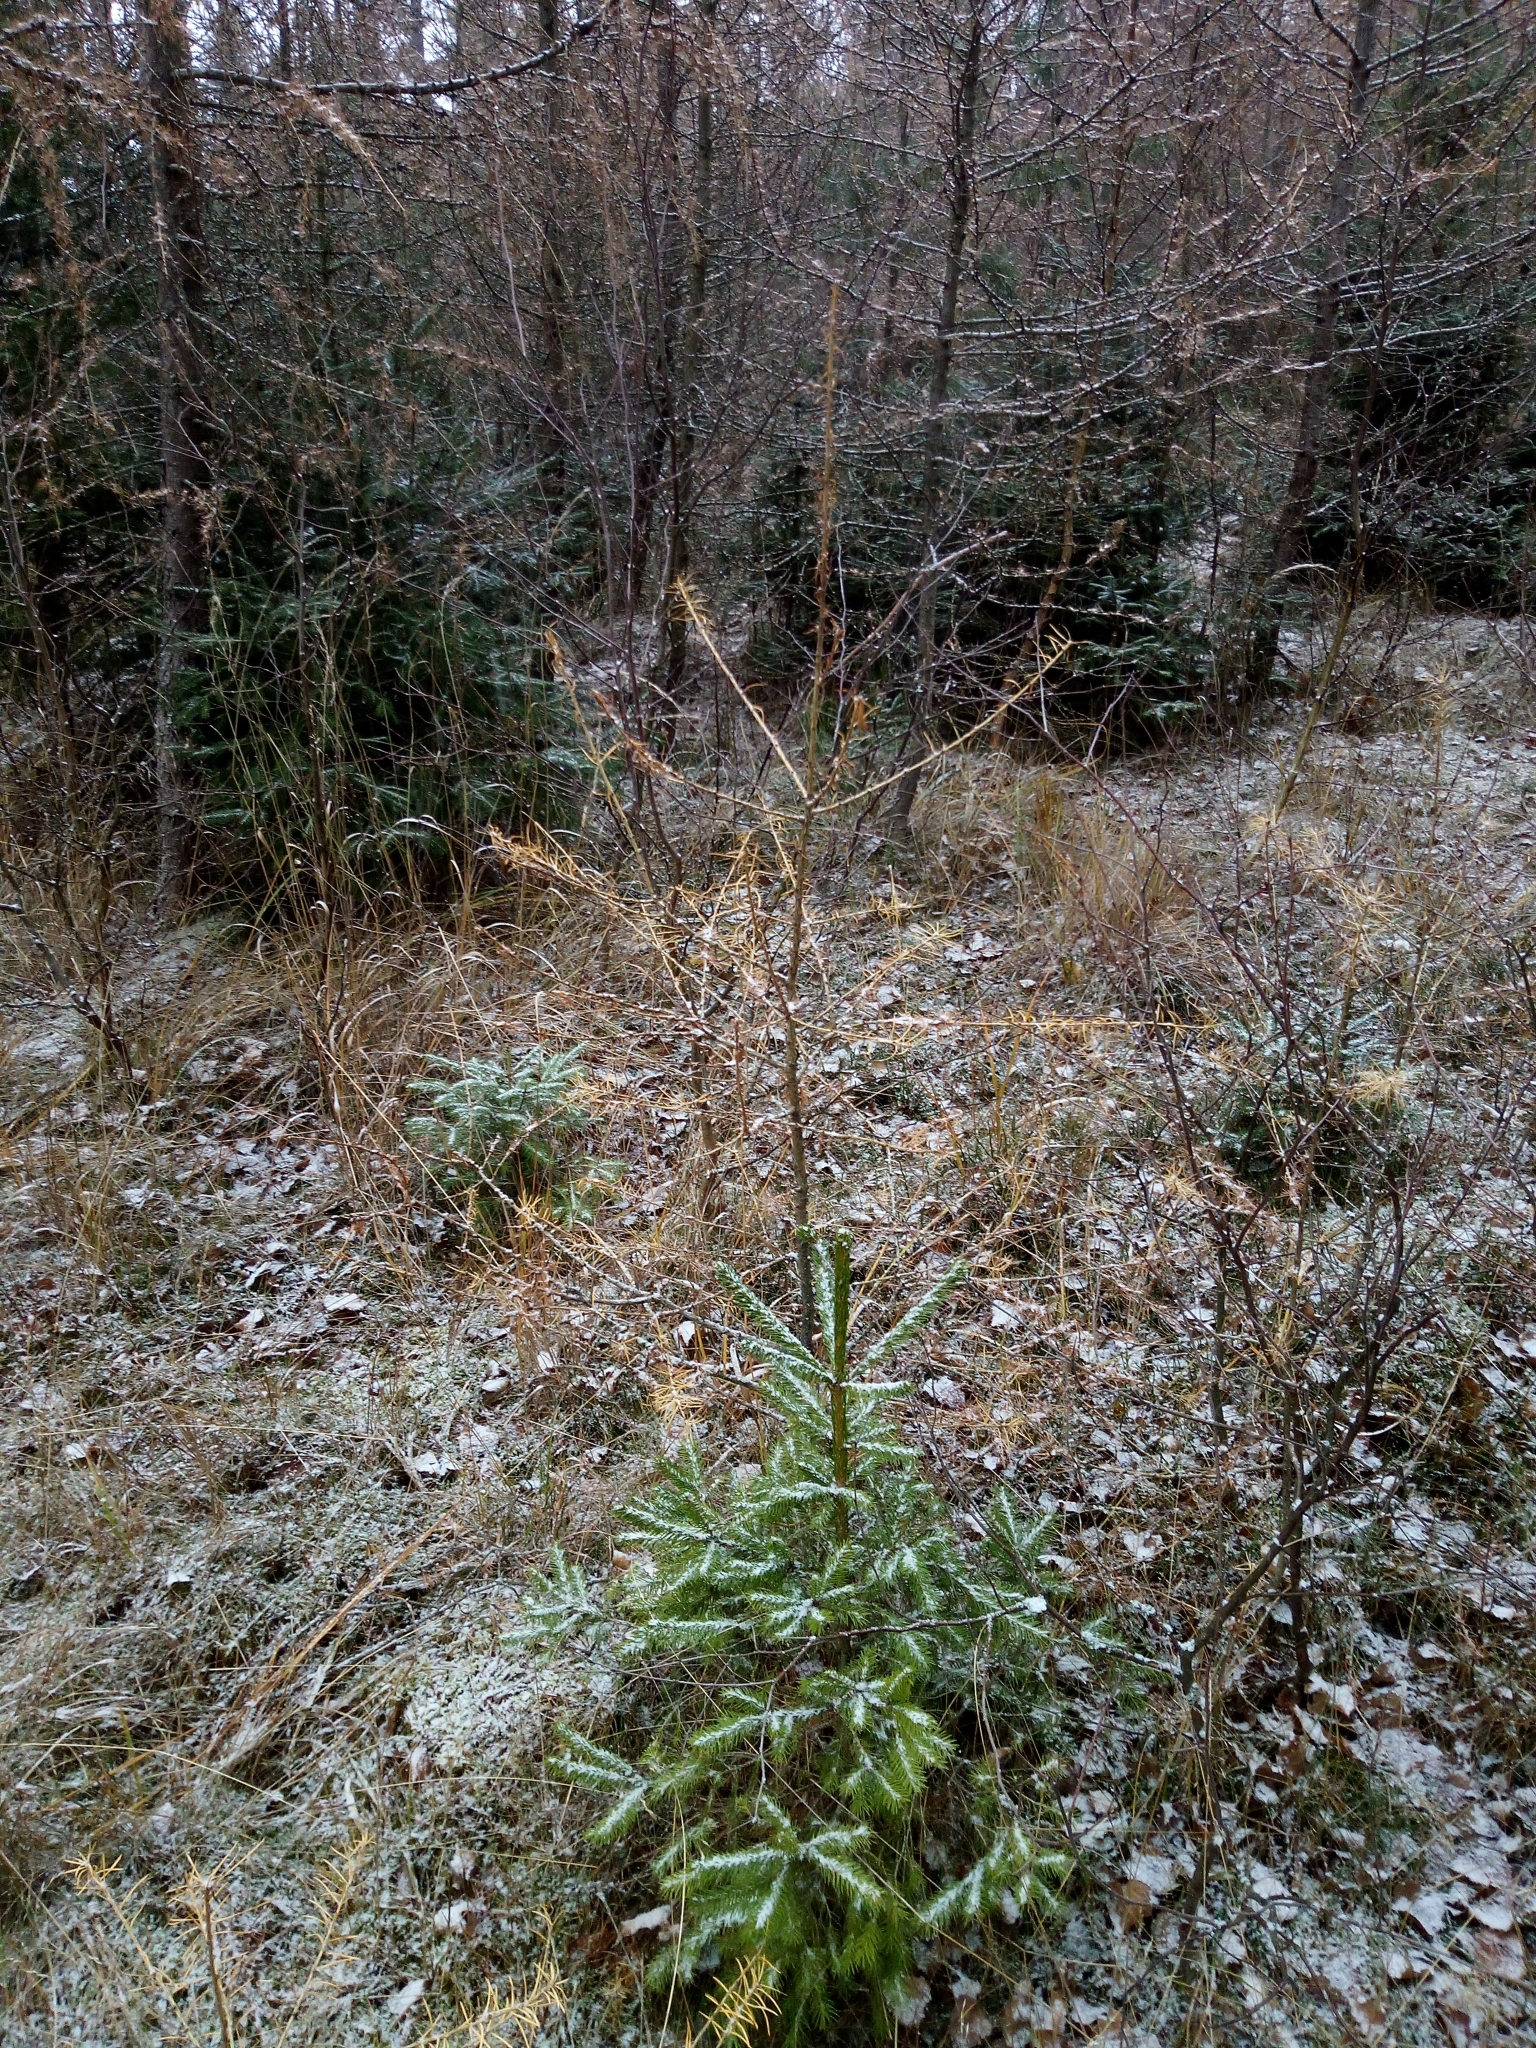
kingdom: Plantae
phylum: Tracheophyta
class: Pinopsida
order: Pinales
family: Pinaceae
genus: Larix
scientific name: Larix decidua
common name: European larch
